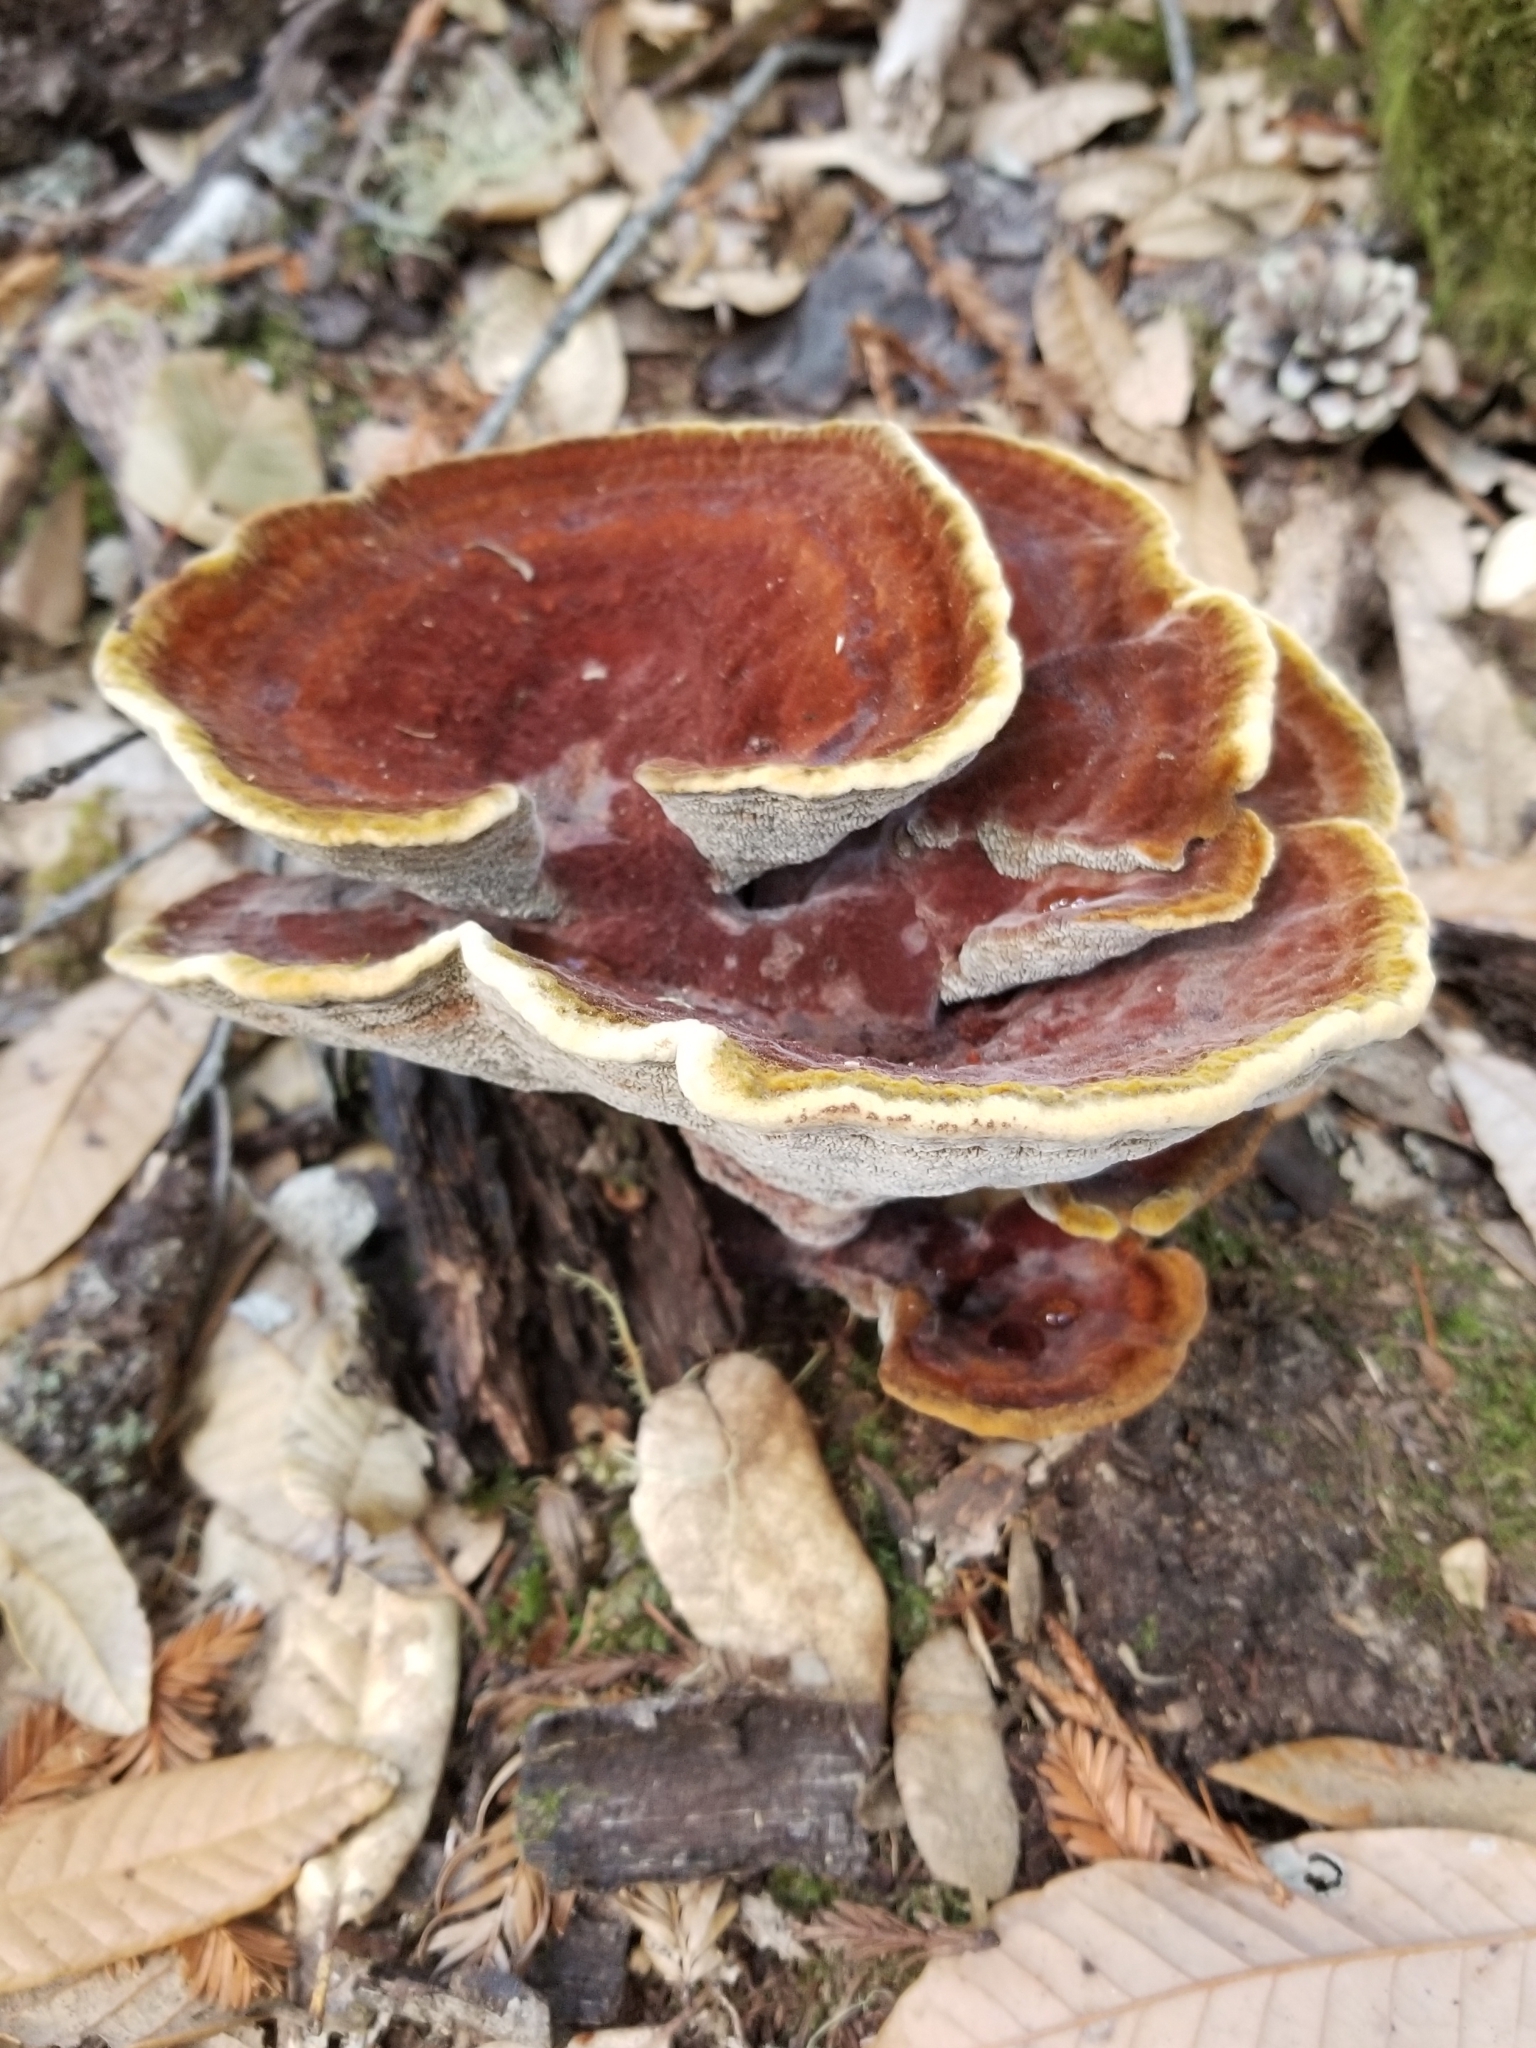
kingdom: Fungi
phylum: Basidiomycota
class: Agaricomycetes
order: Polyporales
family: Laetiporaceae
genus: Phaeolus
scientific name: Phaeolus schweinitzii
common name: Dyer's mazegill
